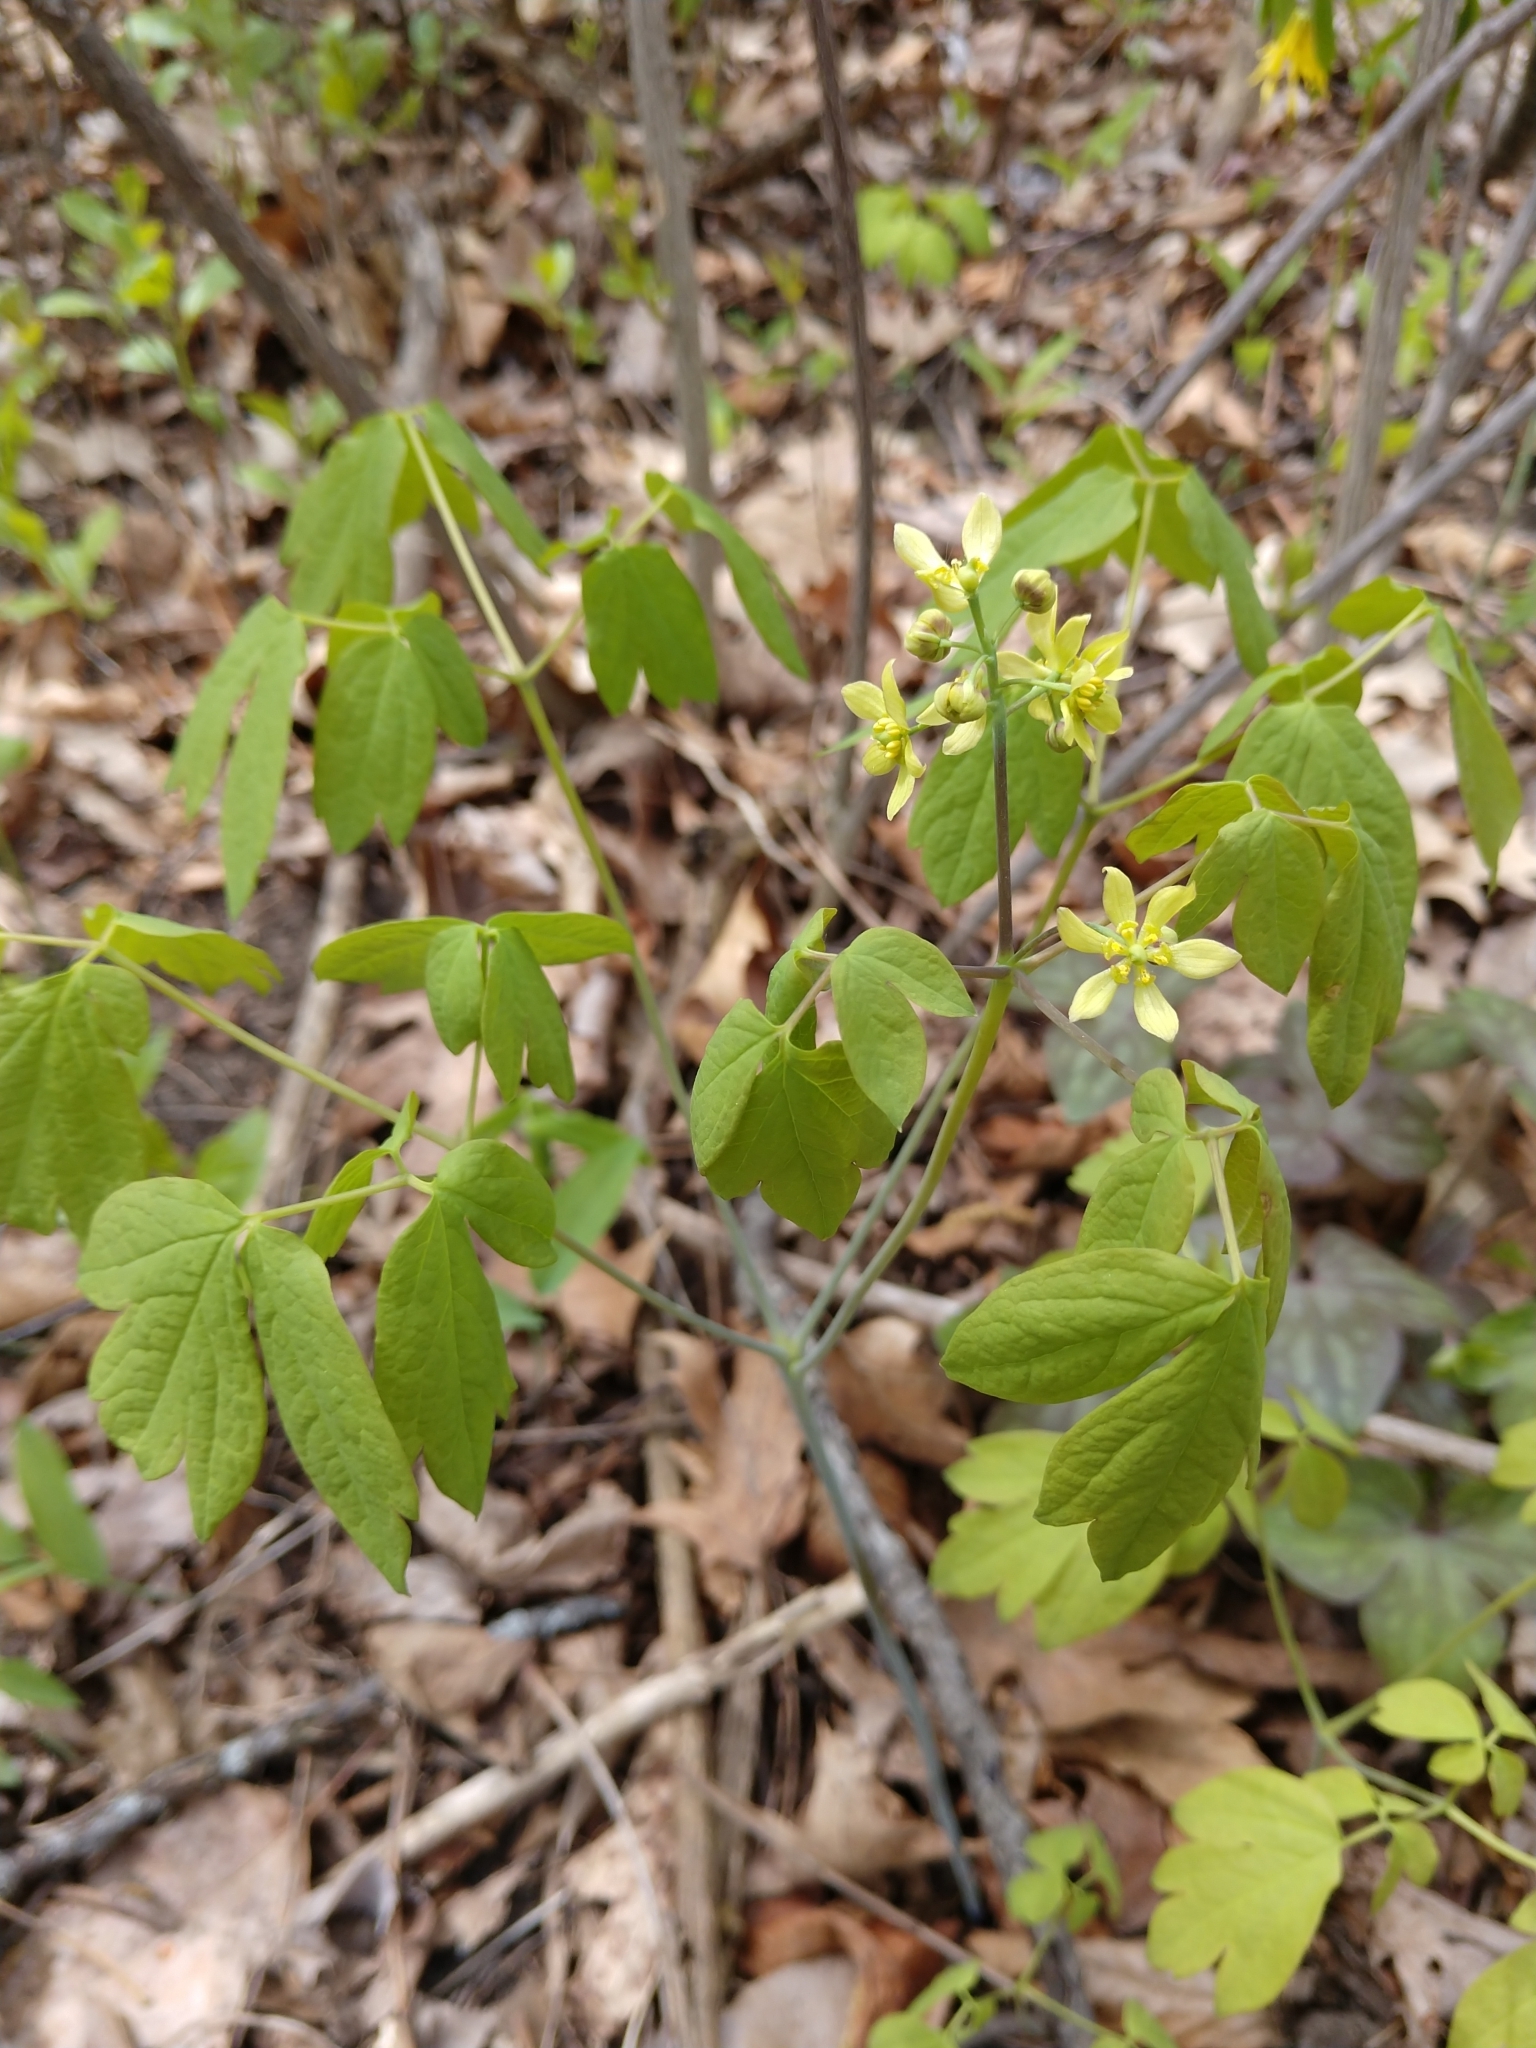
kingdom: Plantae
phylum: Tracheophyta
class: Magnoliopsida
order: Ranunculales
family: Berberidaceae
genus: Caulophyllum
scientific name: Caulophyllum thalictroides
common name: Blue cohosh
